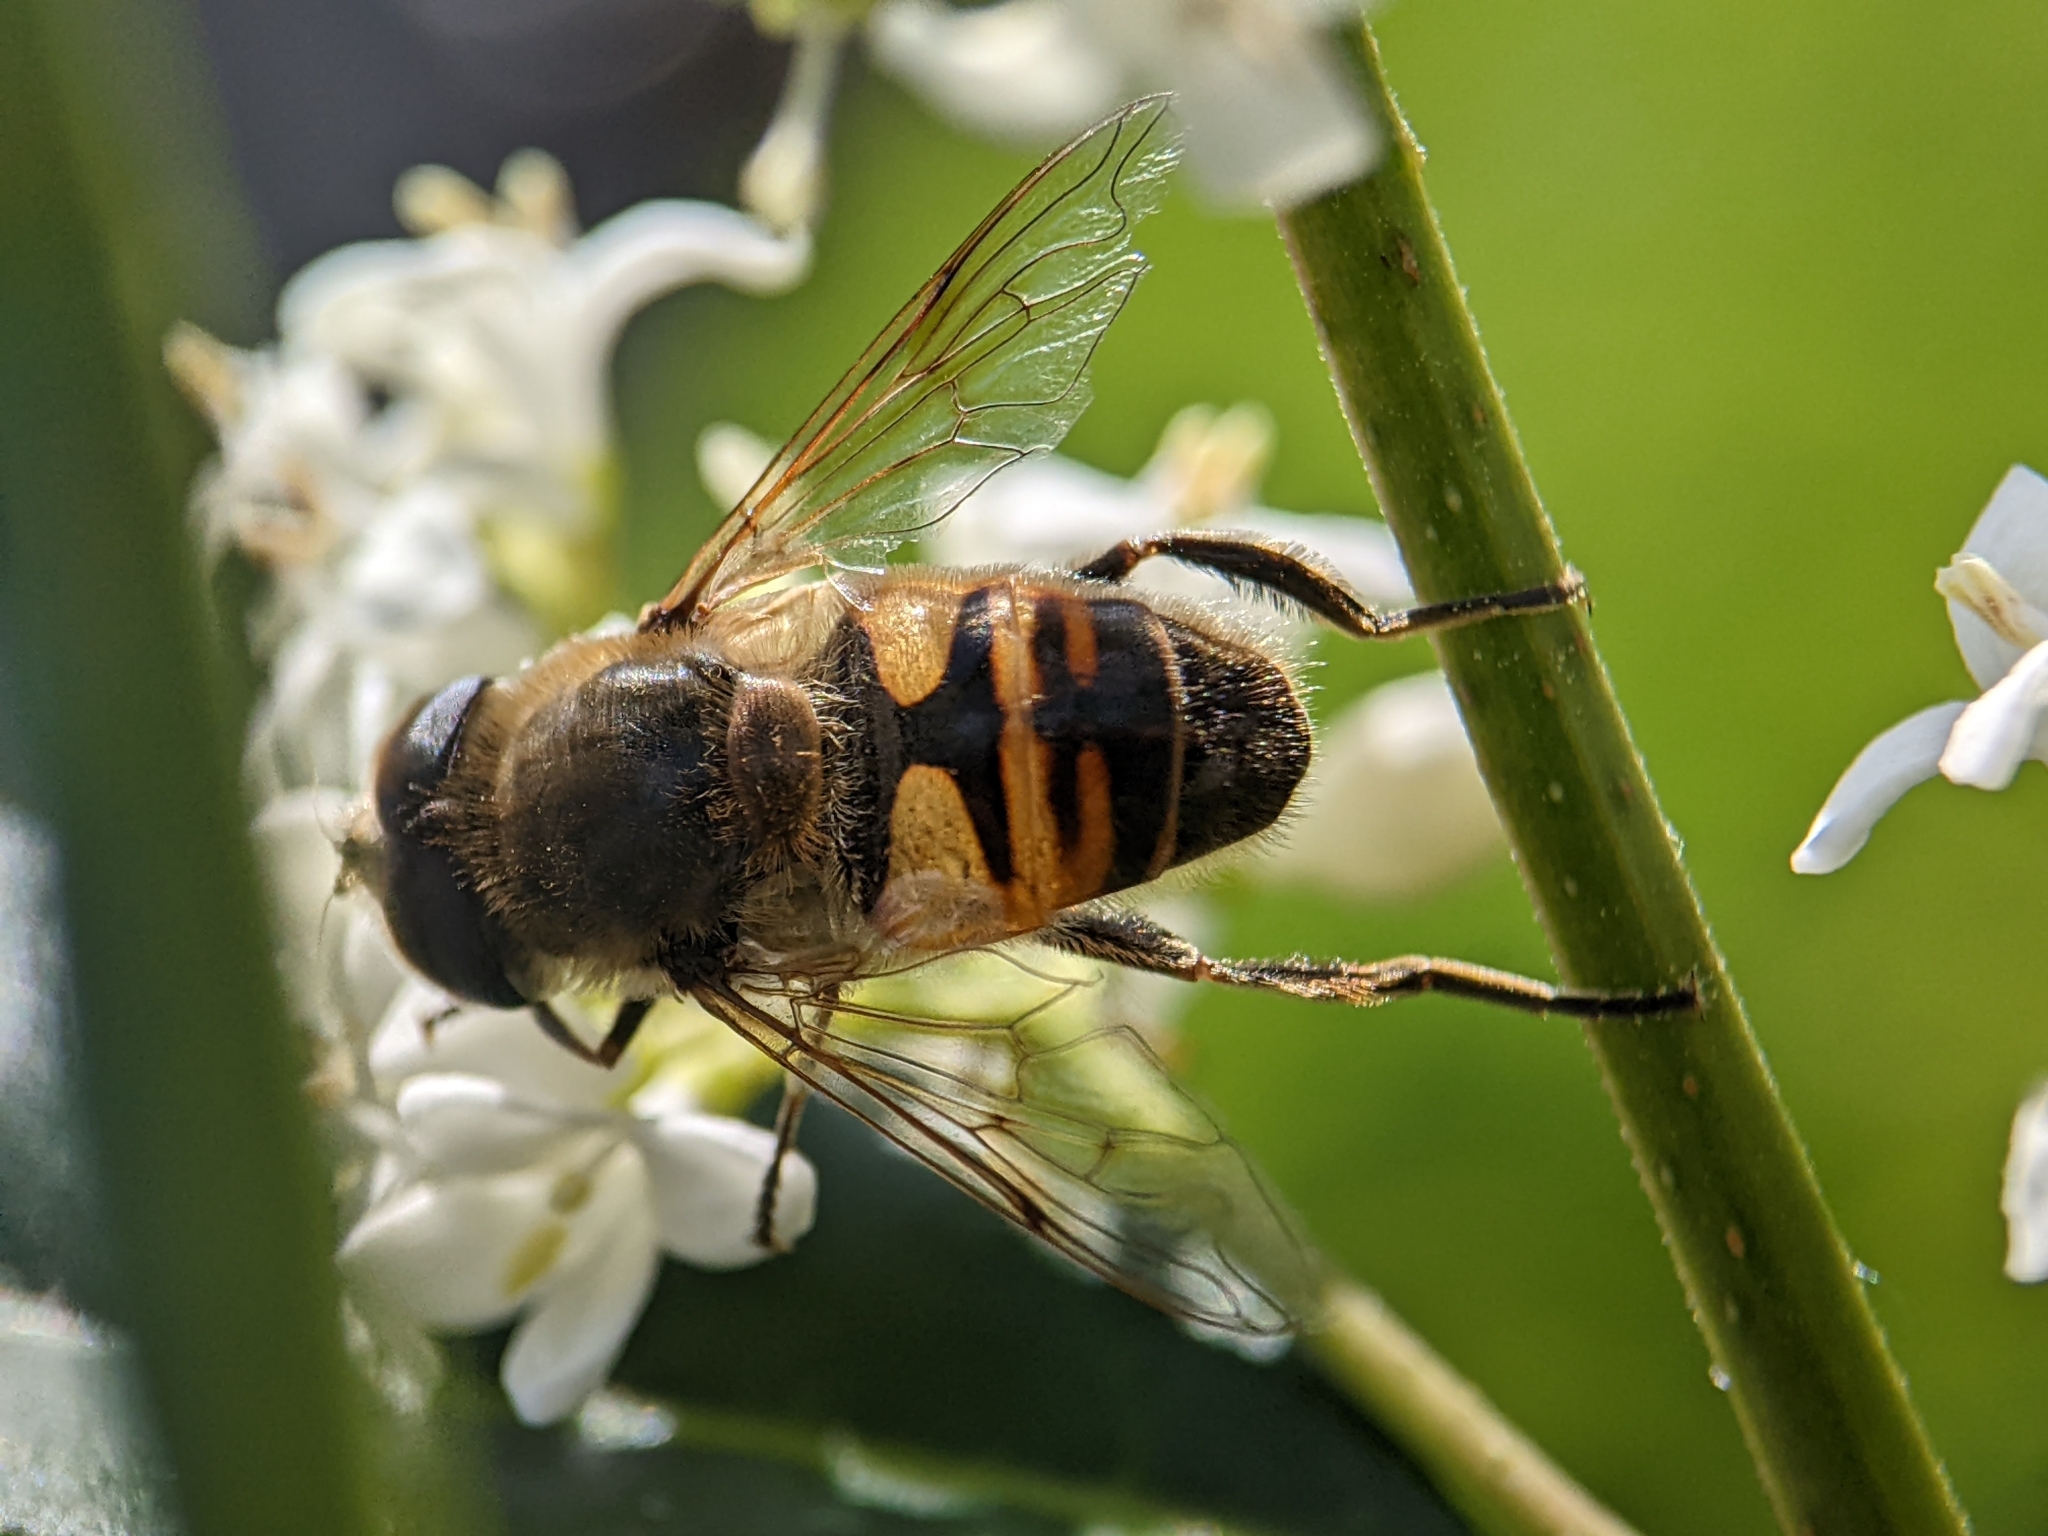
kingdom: Animalia
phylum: Arthropoda
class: Insecta
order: Diptera
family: Syrphidae
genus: Eristalis
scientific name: Eristalis tenax
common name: Drone fly
